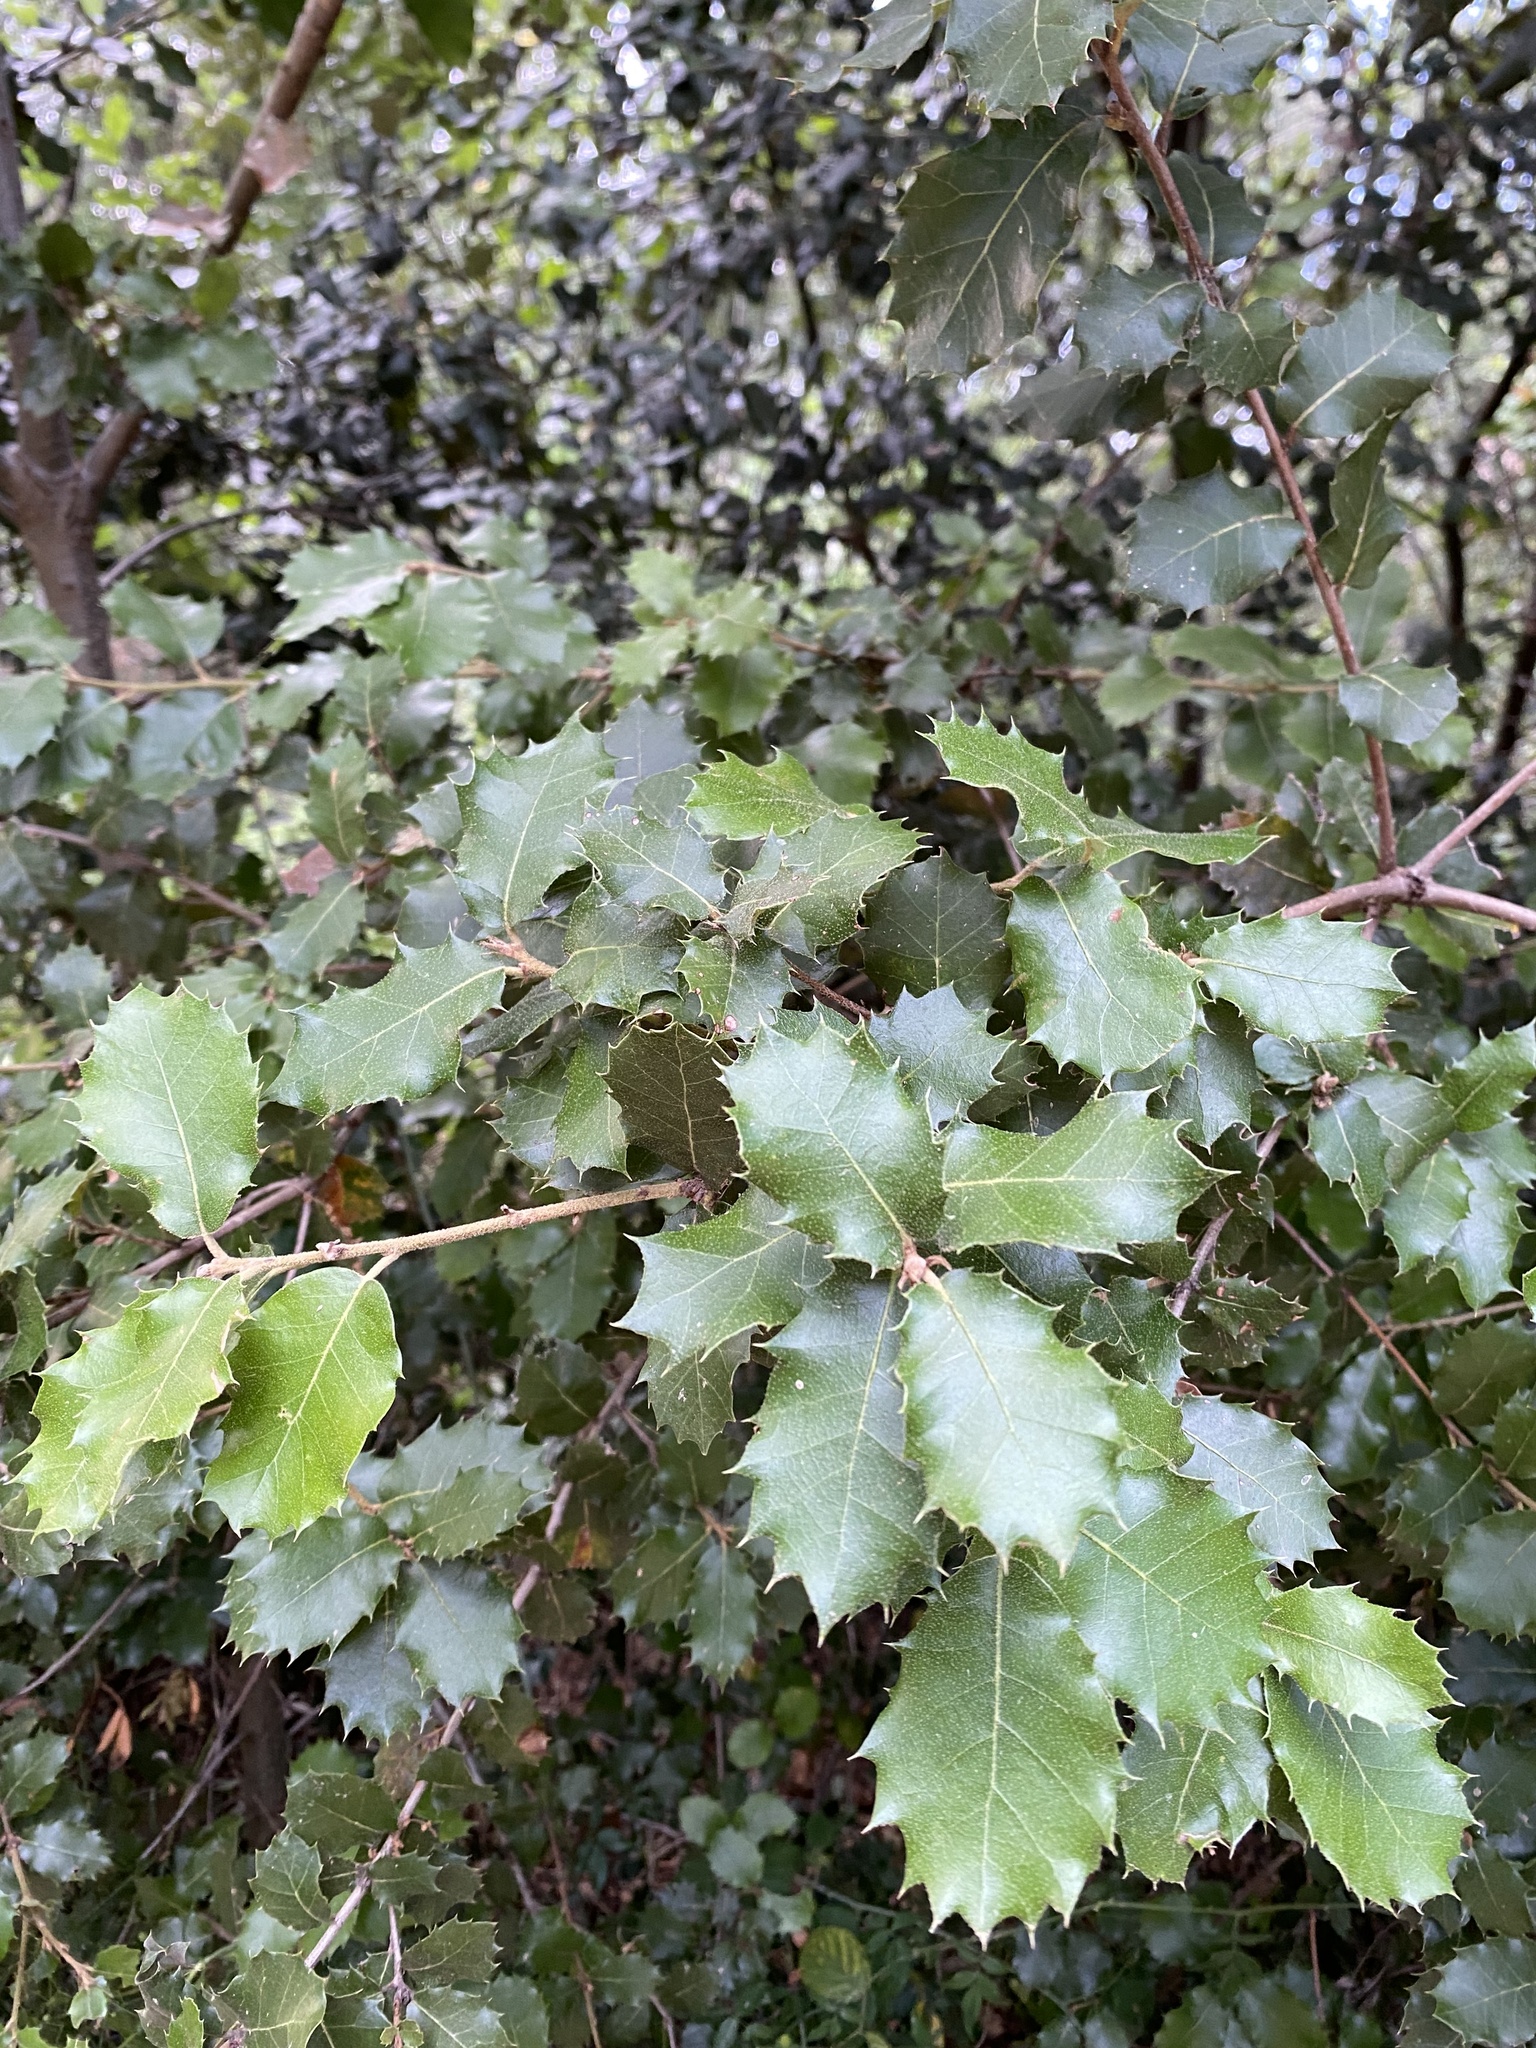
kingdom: Plantae
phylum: Tracheophyta
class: Magnoliopsida
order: Fagales
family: Fagaceae
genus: Quercus
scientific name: Quercus ilex
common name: Evergreen oak
